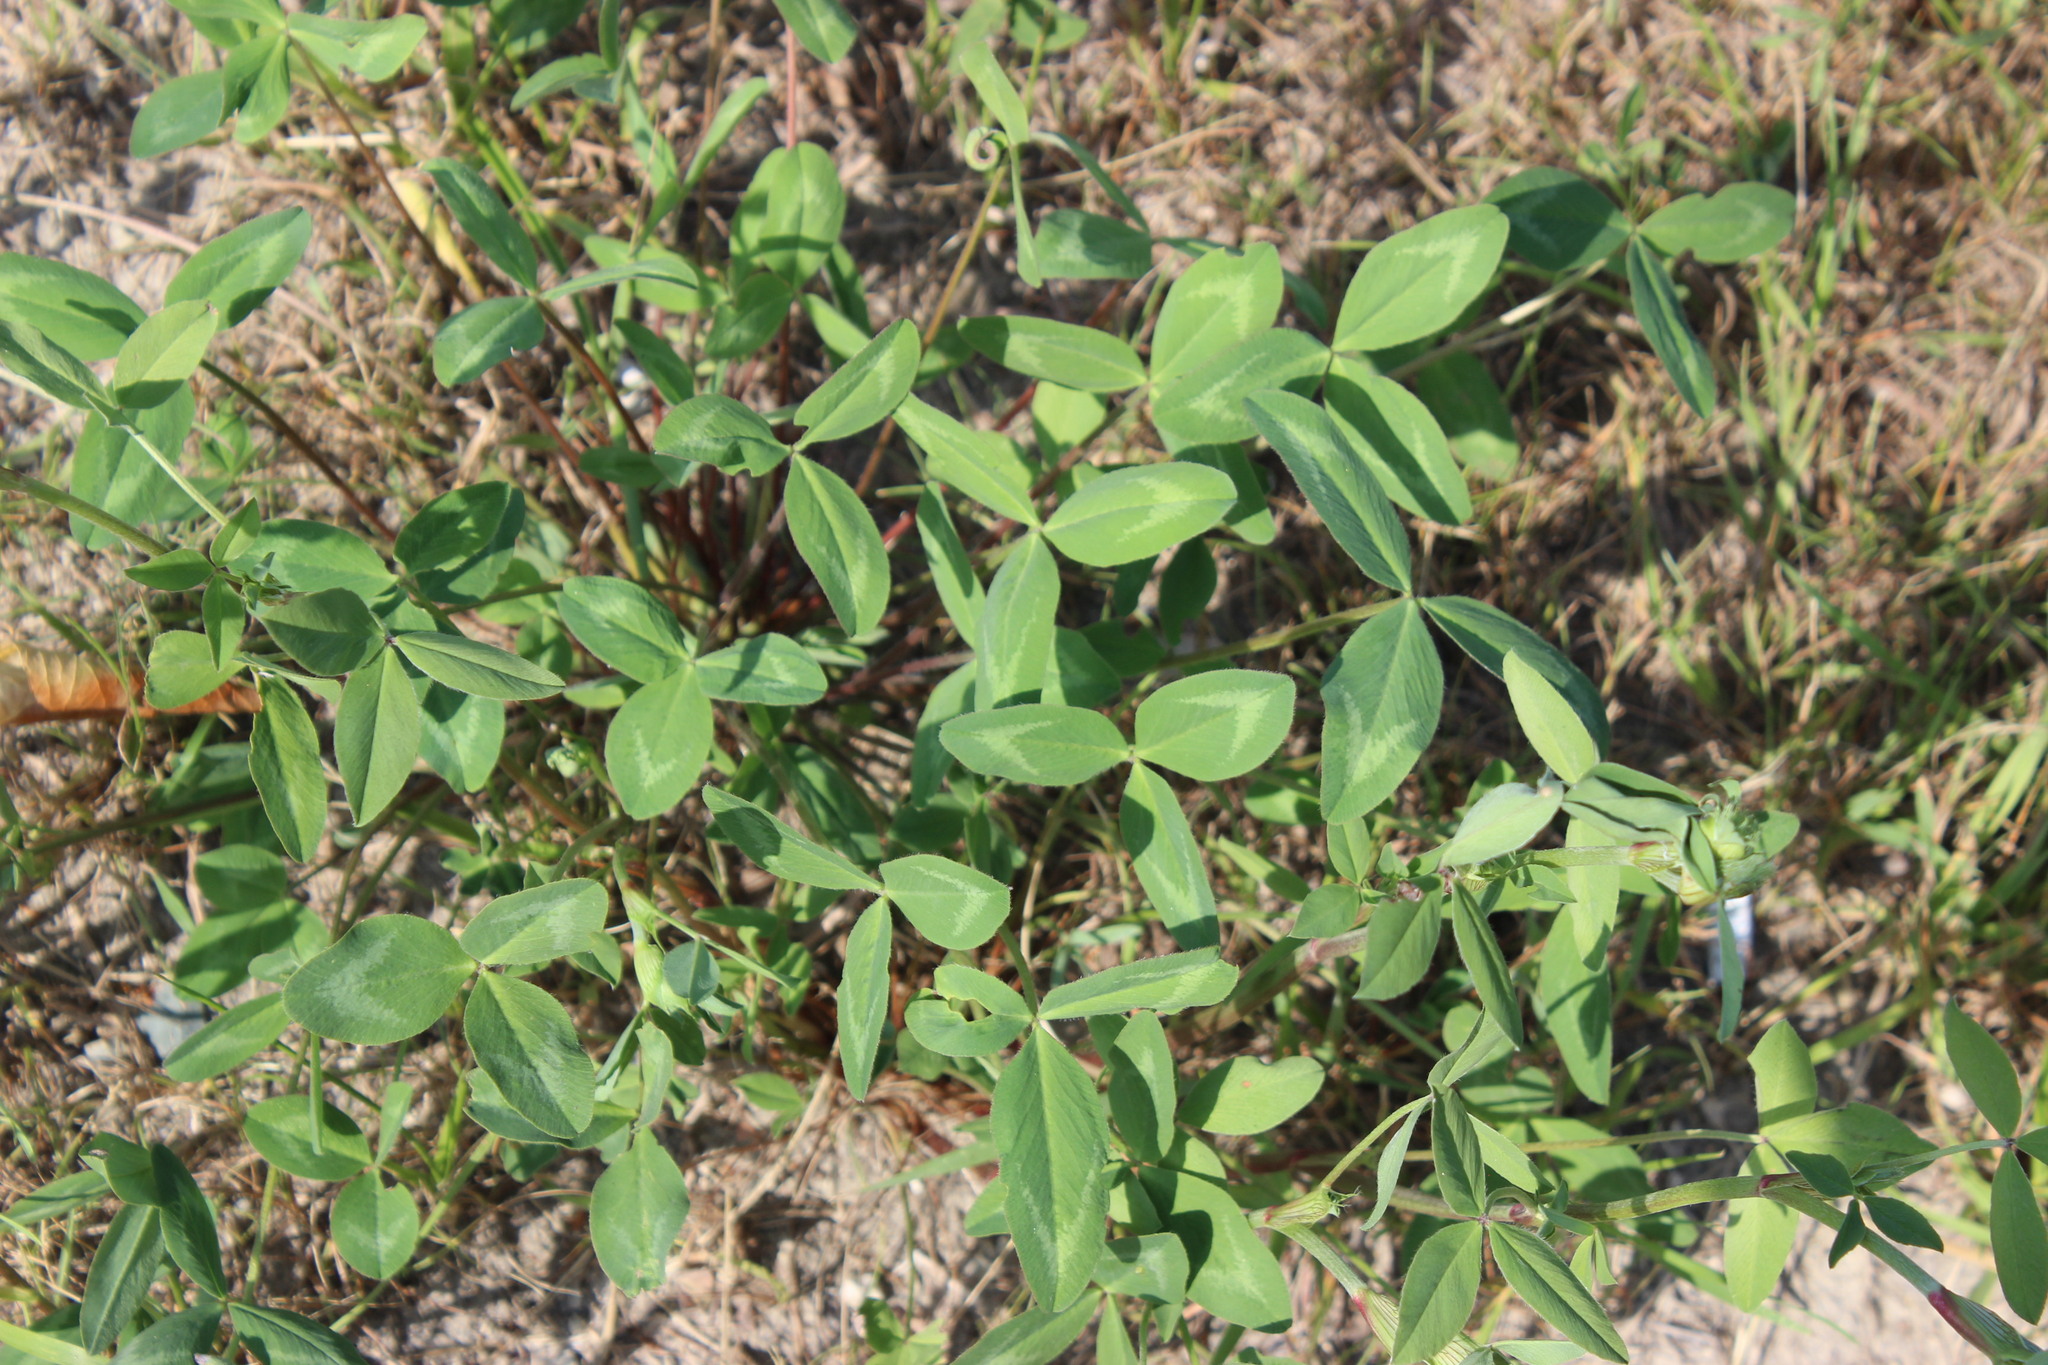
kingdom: Plantae
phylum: Tracheophyta
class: Magnoliopsida
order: Fabales
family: Fabaceae
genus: Trifolium
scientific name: Trifolium pratense
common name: Red clover
